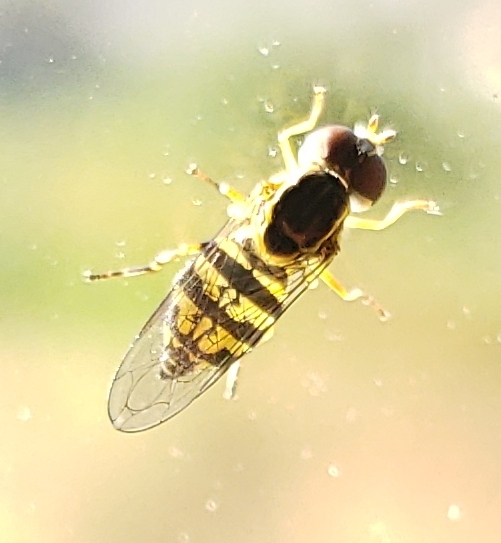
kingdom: Animalia
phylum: Arthropoda
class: Insecta
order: Diptera
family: Syrphidae
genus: Toxomerus
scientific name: Toxomerus occidentalis
